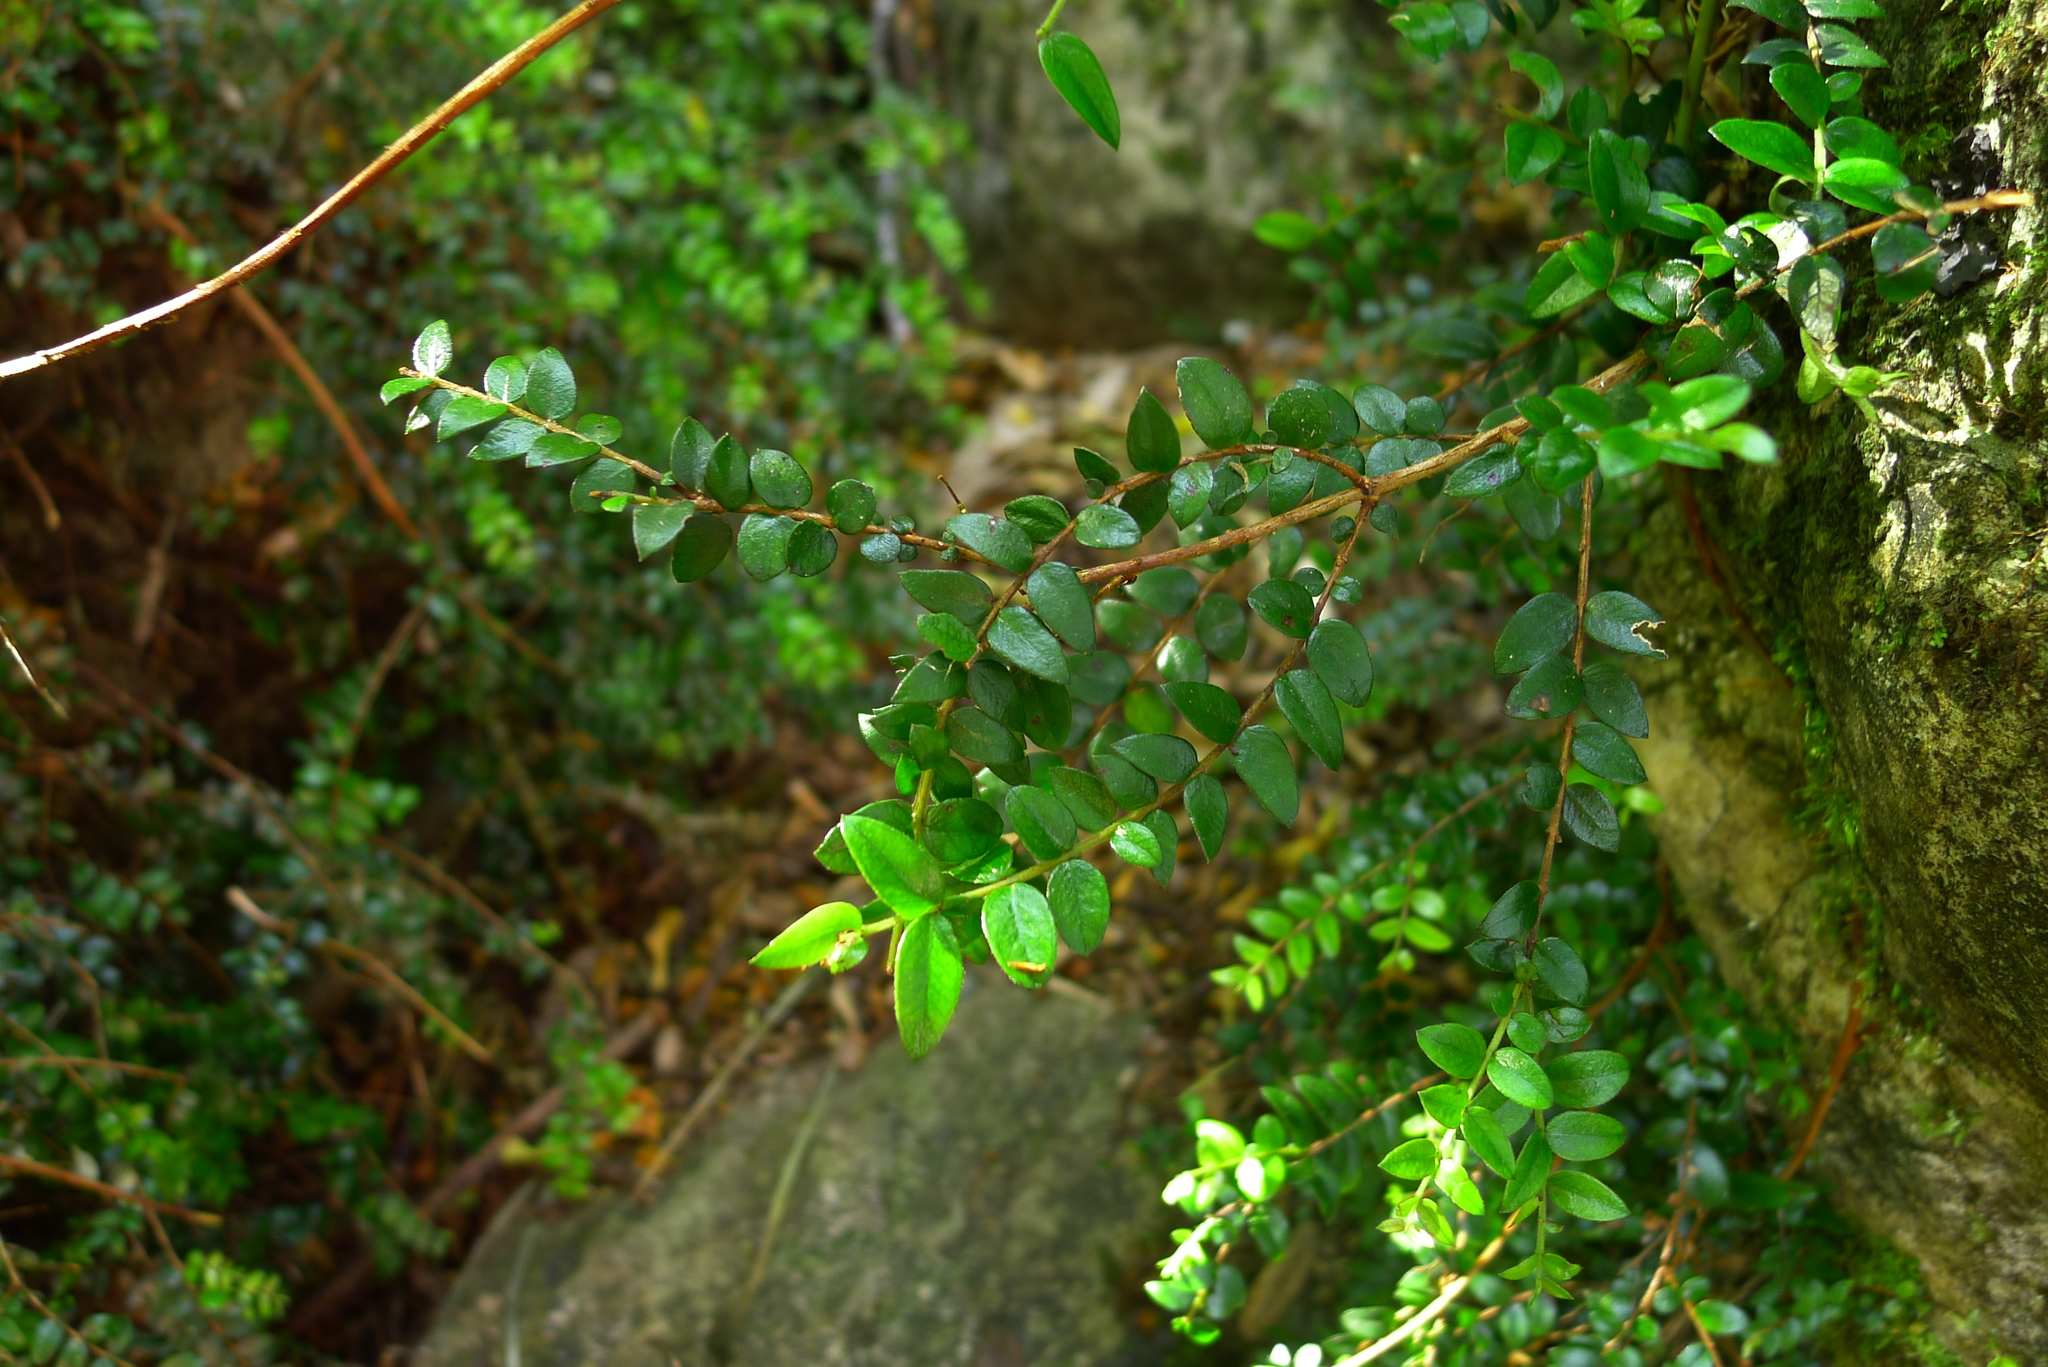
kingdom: Plantae
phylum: Tracheophyta
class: Magnoliopsida
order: Myrtales
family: Myrtaceae
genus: Metrosideros
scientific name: Metrosideros diffusa
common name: Small ratavine
